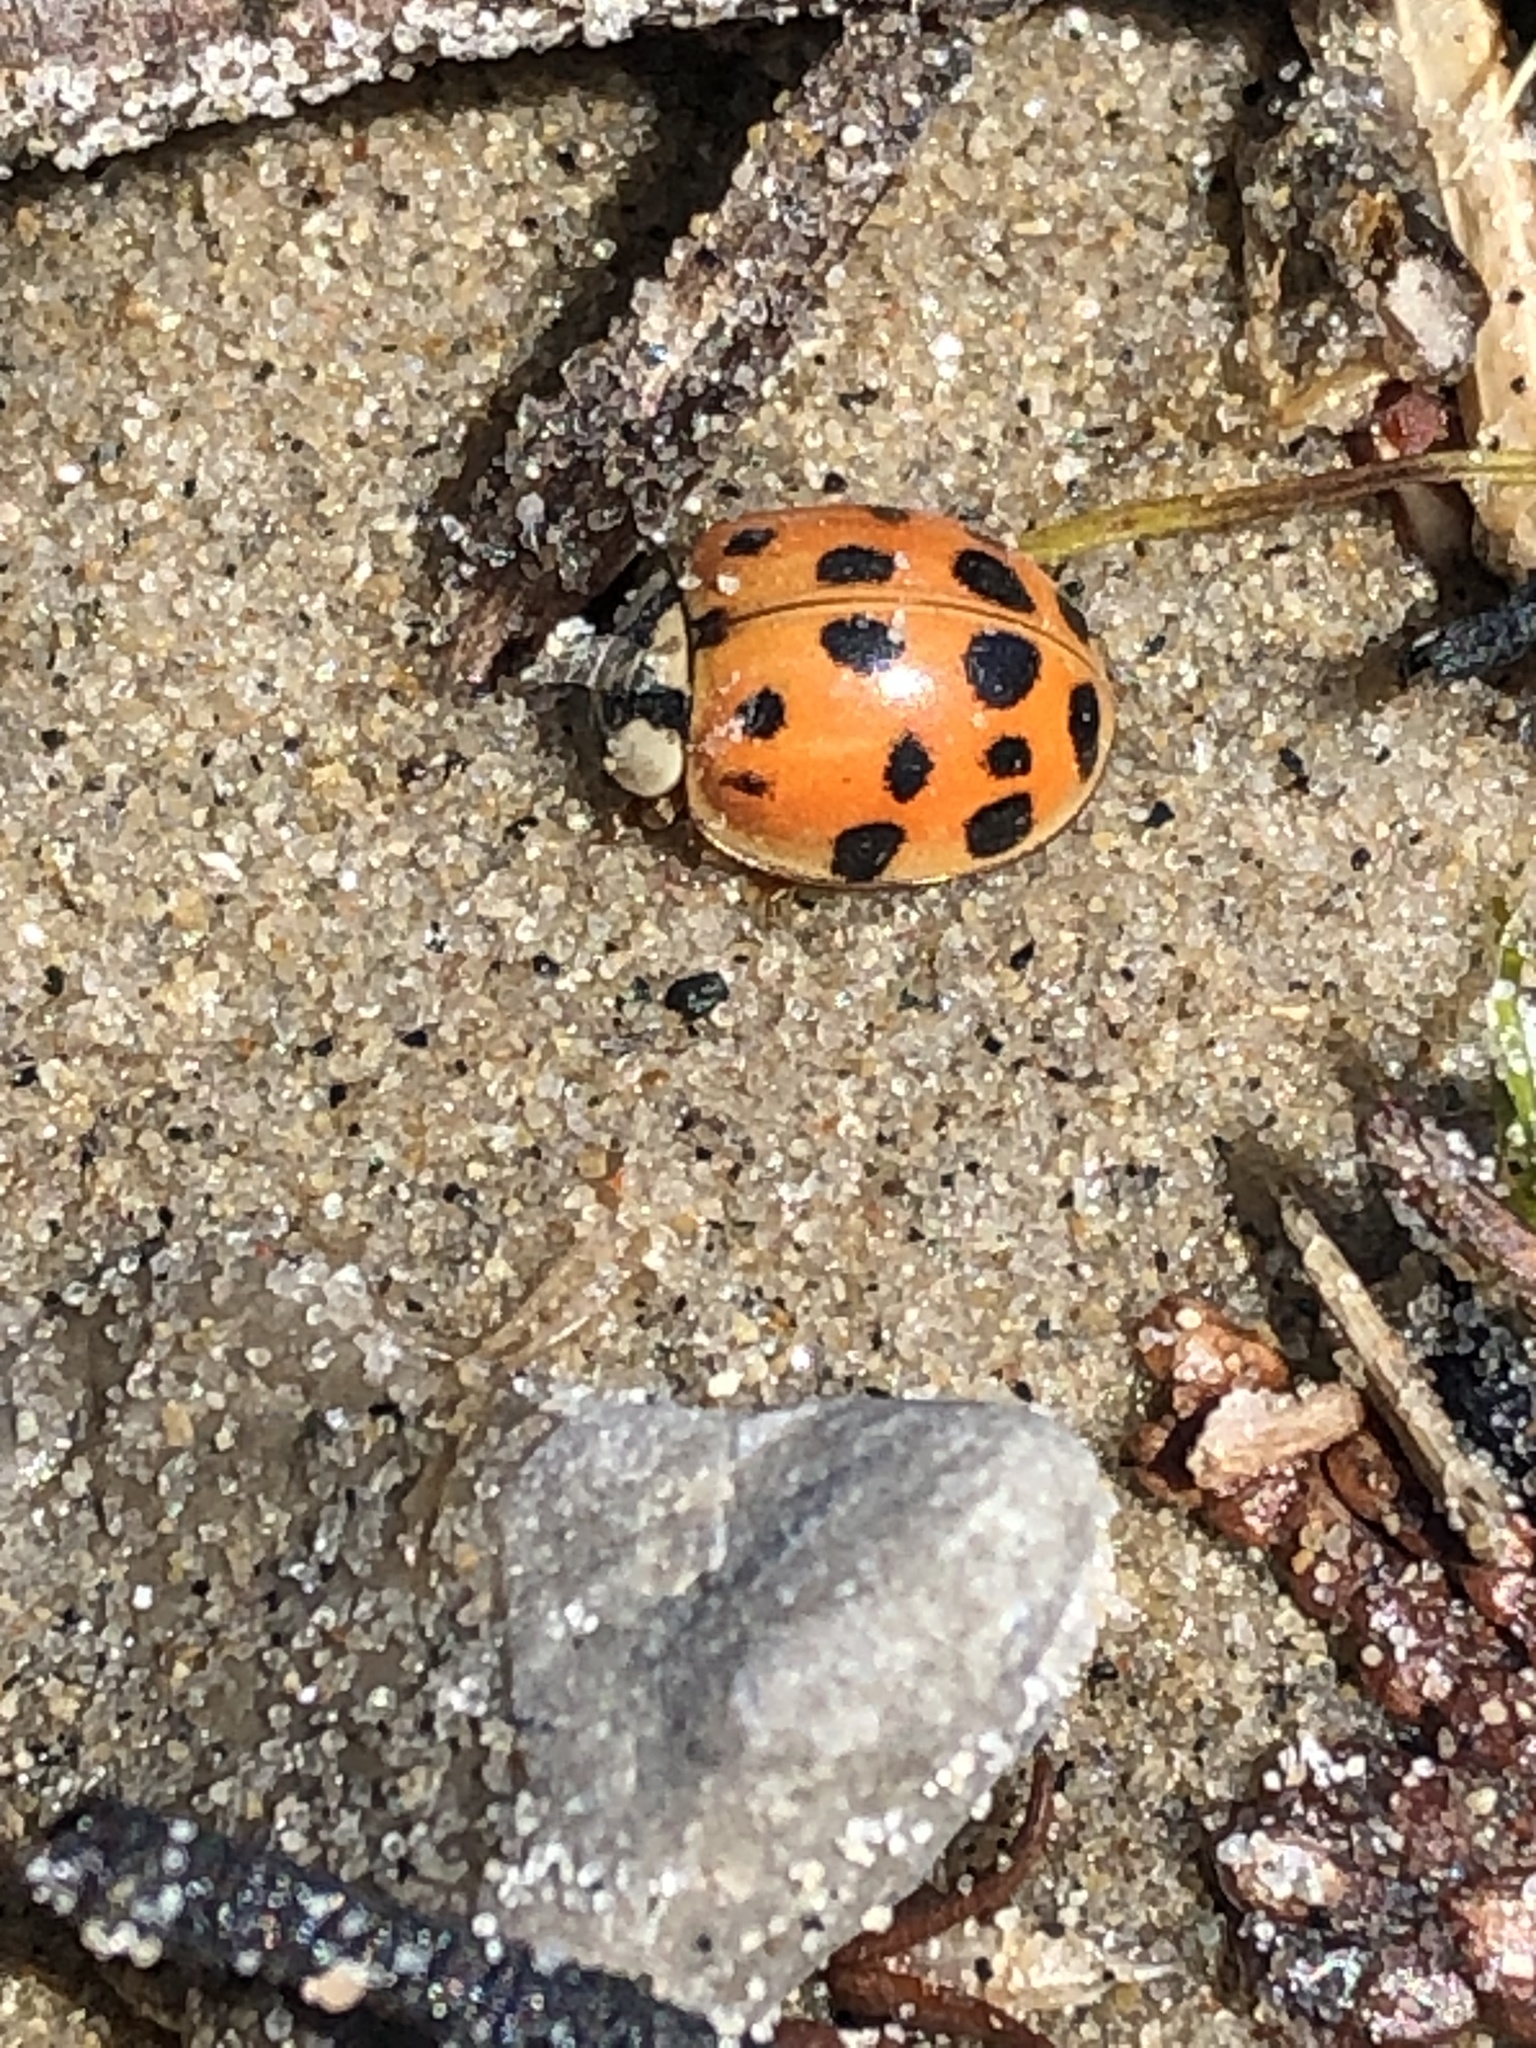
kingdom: Animalia
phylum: Arthropoda
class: Insecta
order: Coleoptera
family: Coccinellidae
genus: Harmonia
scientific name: Harmonia axyridis
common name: Harlequin ladybird
